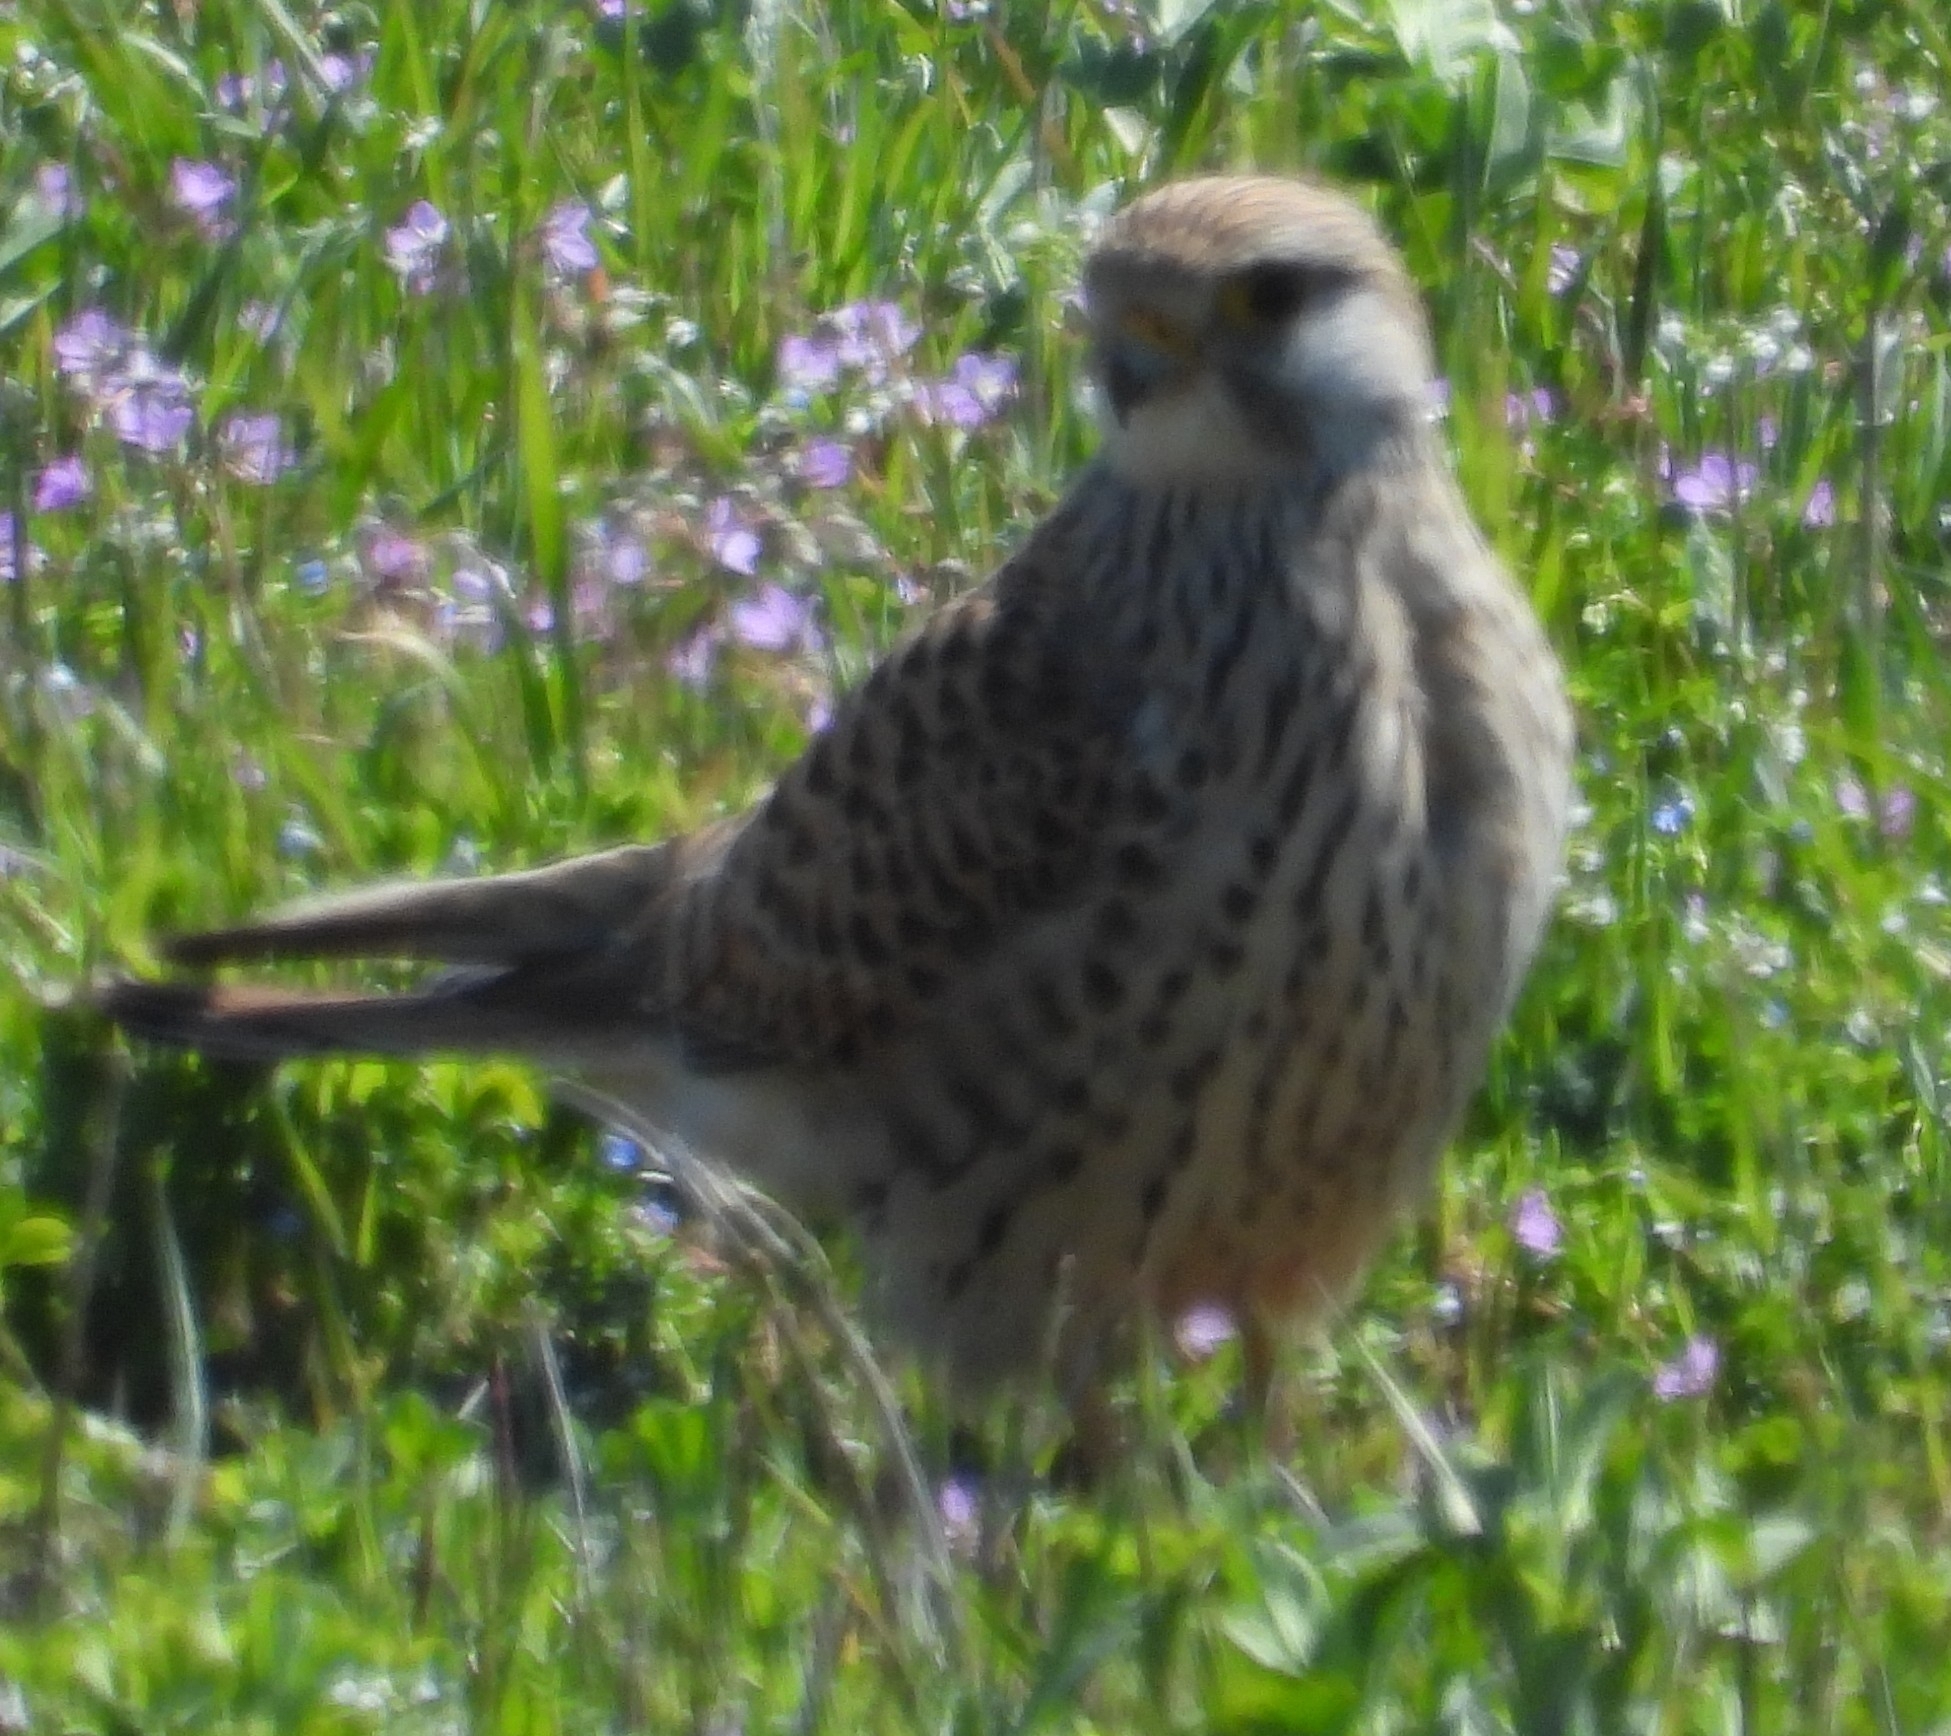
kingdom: Animalia
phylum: Chordata
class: Aves
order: Falconiformes
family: Falconidae
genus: Falco
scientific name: Falco tinnunculus
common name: Common kestrel
